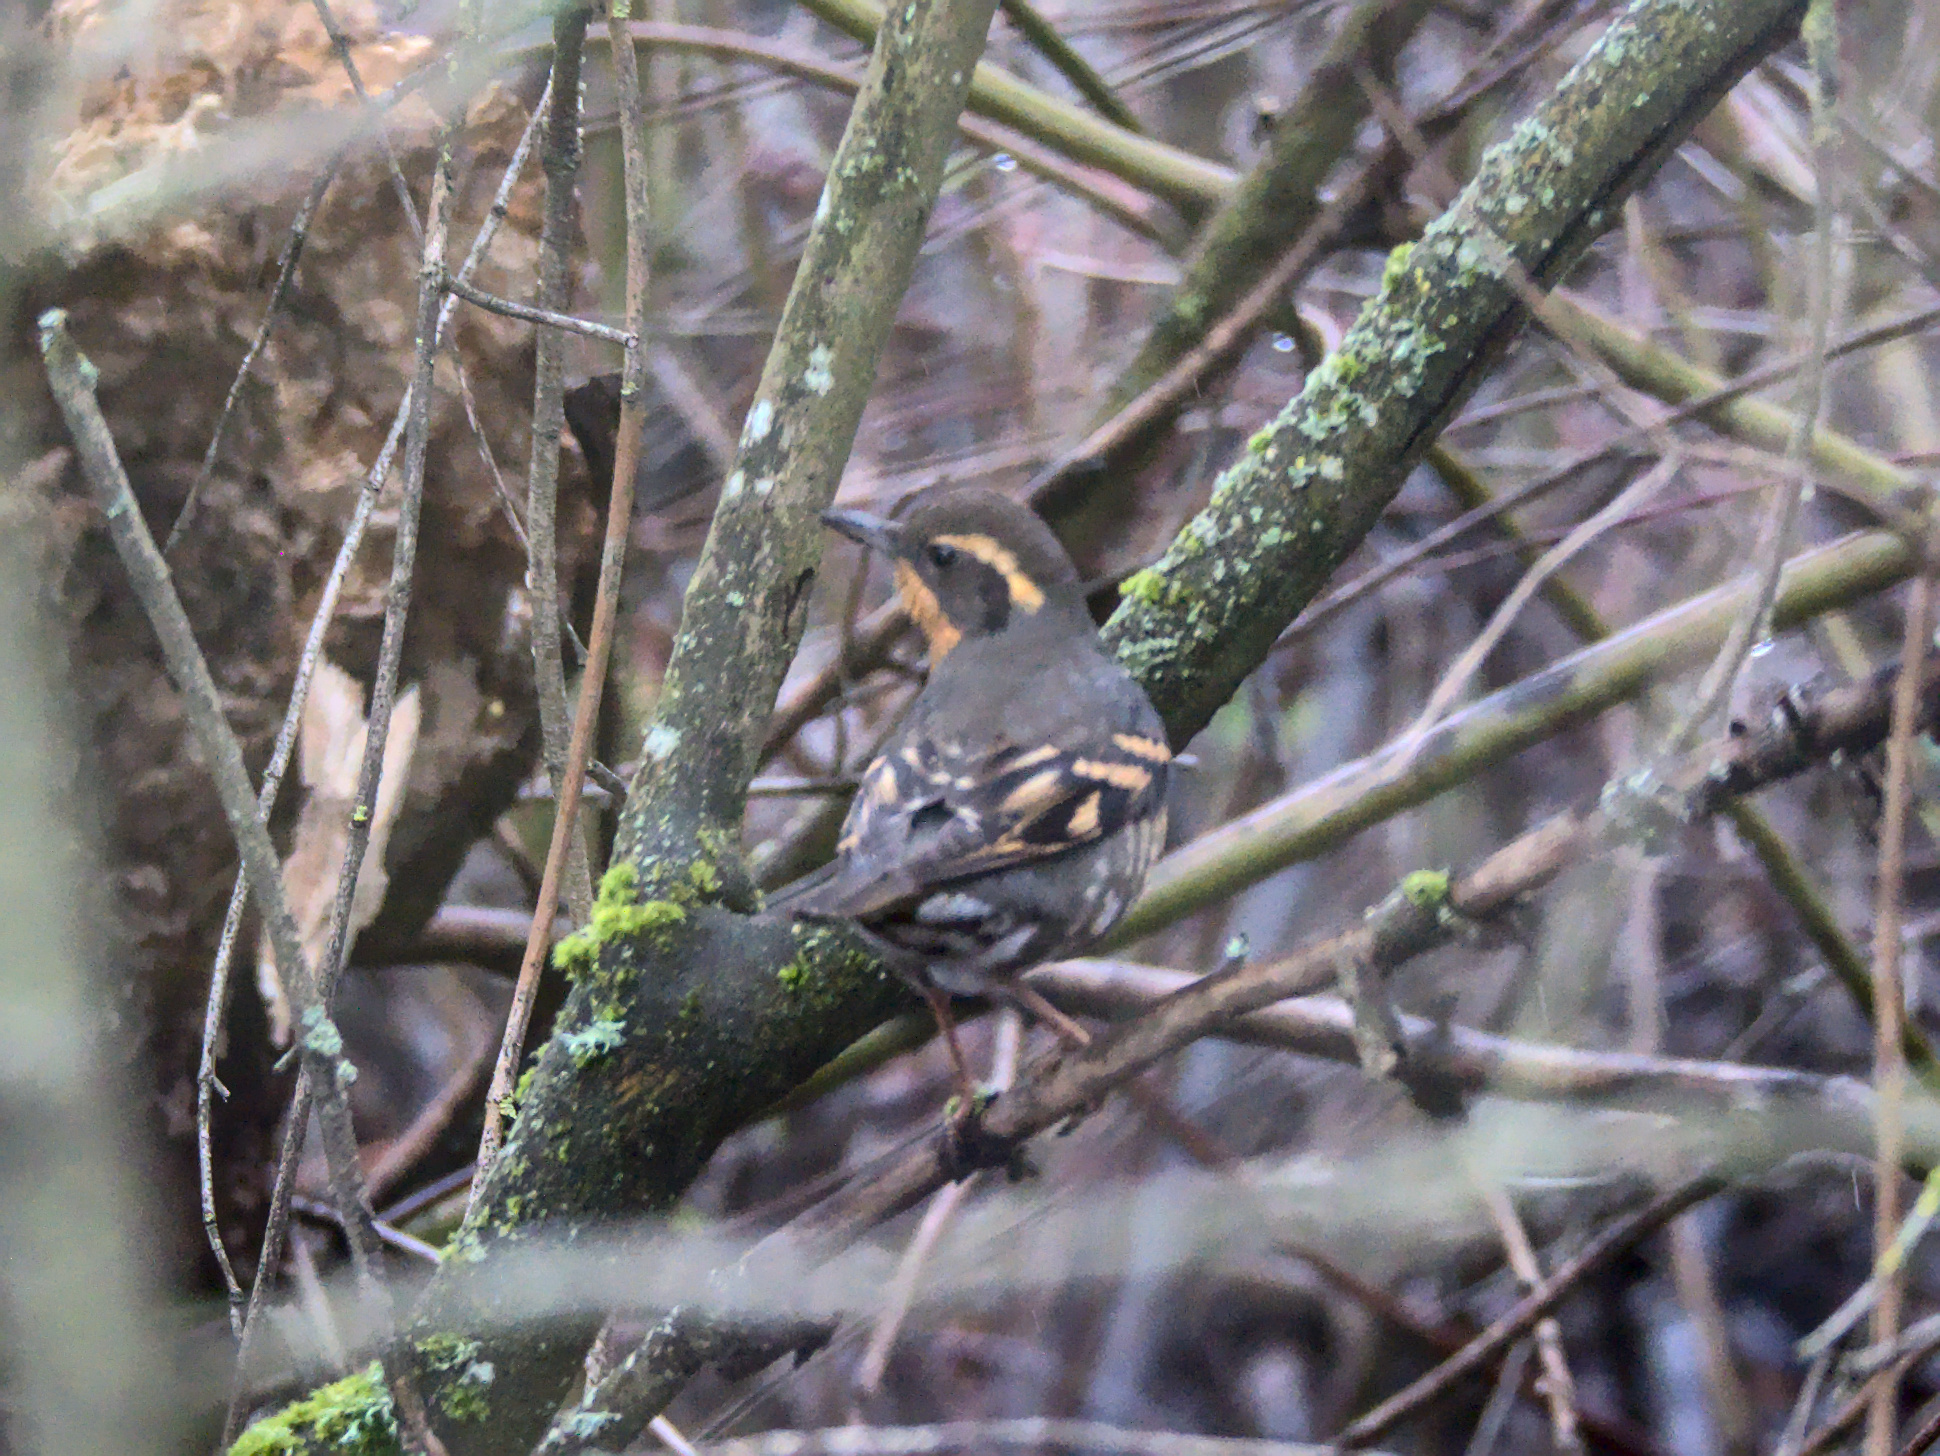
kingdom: Animalia
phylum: Chordata
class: Aves
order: Passeriformes
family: Turdidae
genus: Ixoreus
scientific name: Ixoreus naevius
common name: Varied thrush
